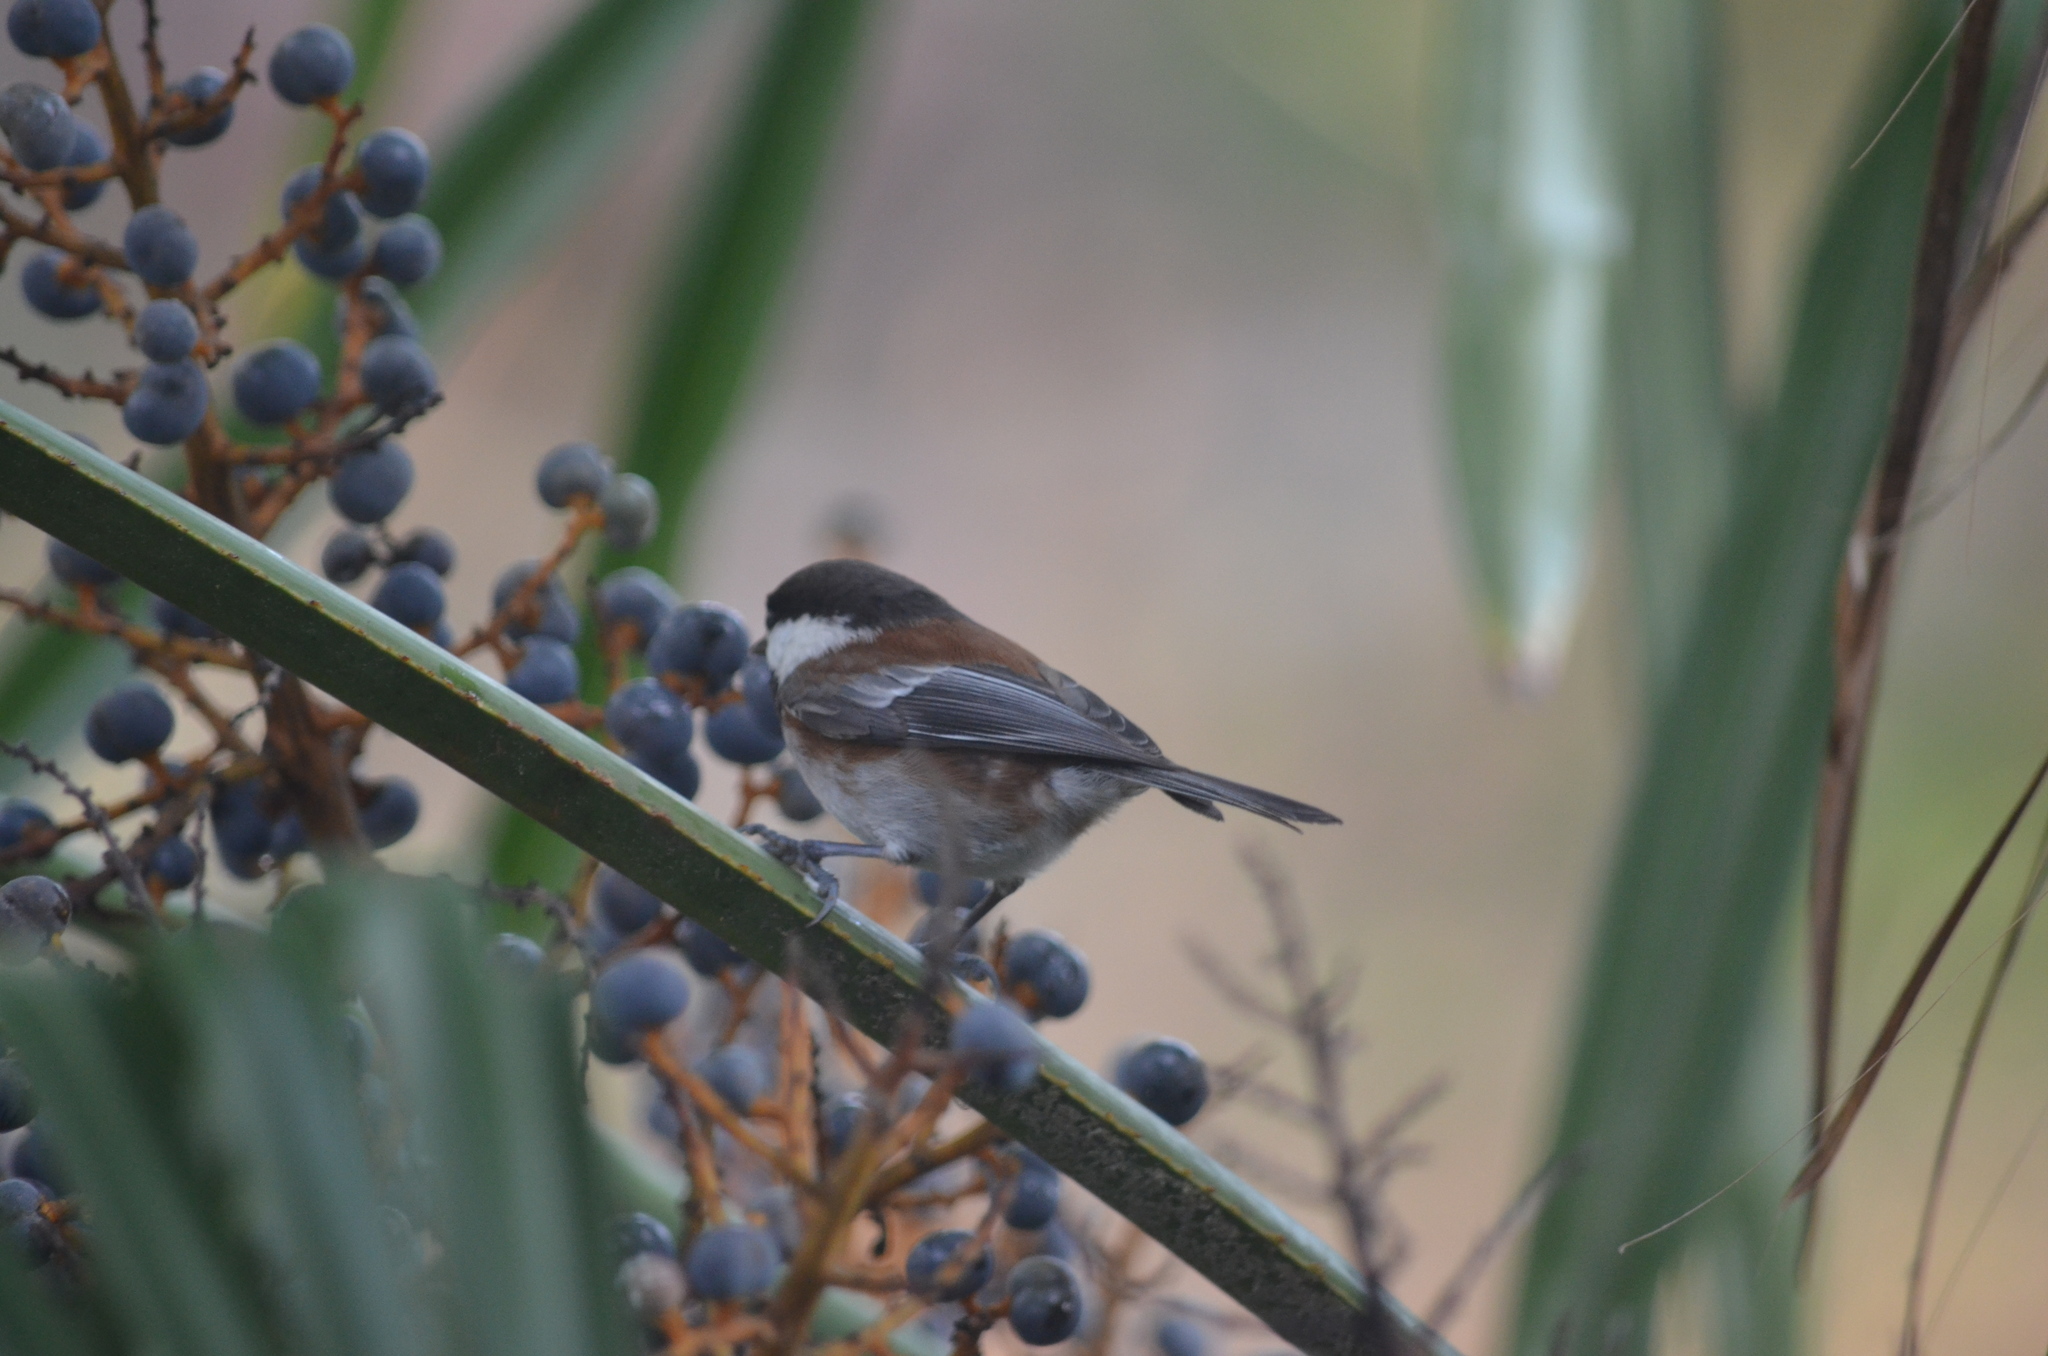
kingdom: Animalia
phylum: Chordata
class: Aves
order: Passeriformes
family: Paridae
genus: Poecile
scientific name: Poecile rufescens
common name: Chestnut-backed chickadee
